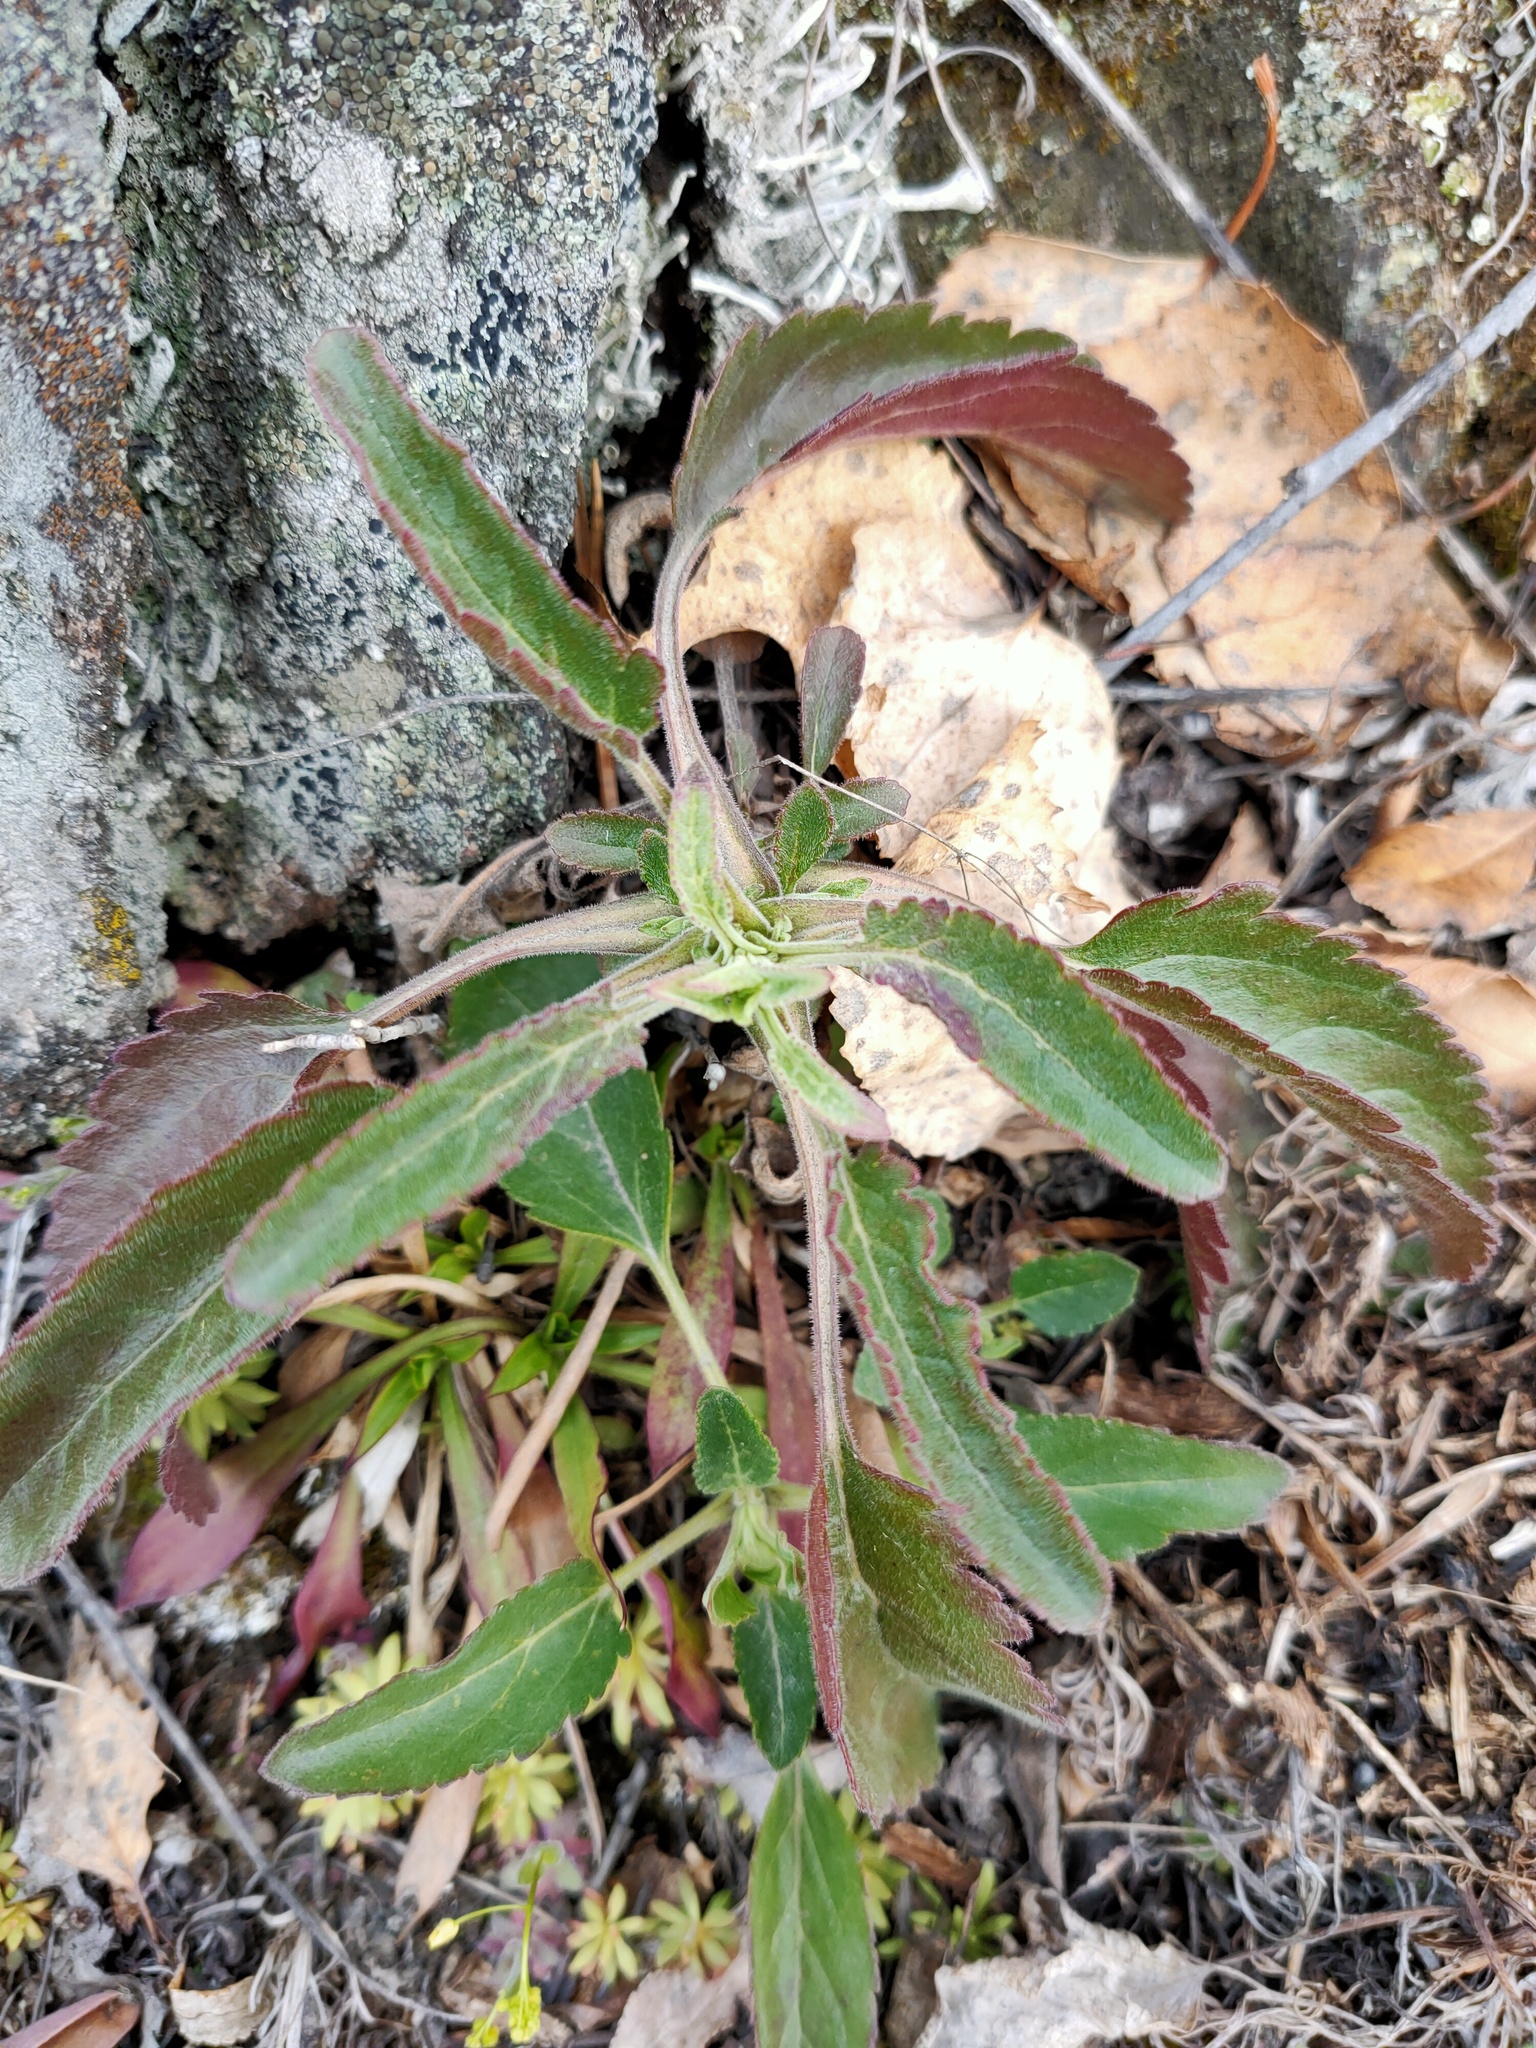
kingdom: Plantae
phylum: Tracheophyta
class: Magnoliopsida
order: Lamiales
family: Plantaginaceae
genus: Veronica
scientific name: Veronica spicata
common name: Spiked speedwell
